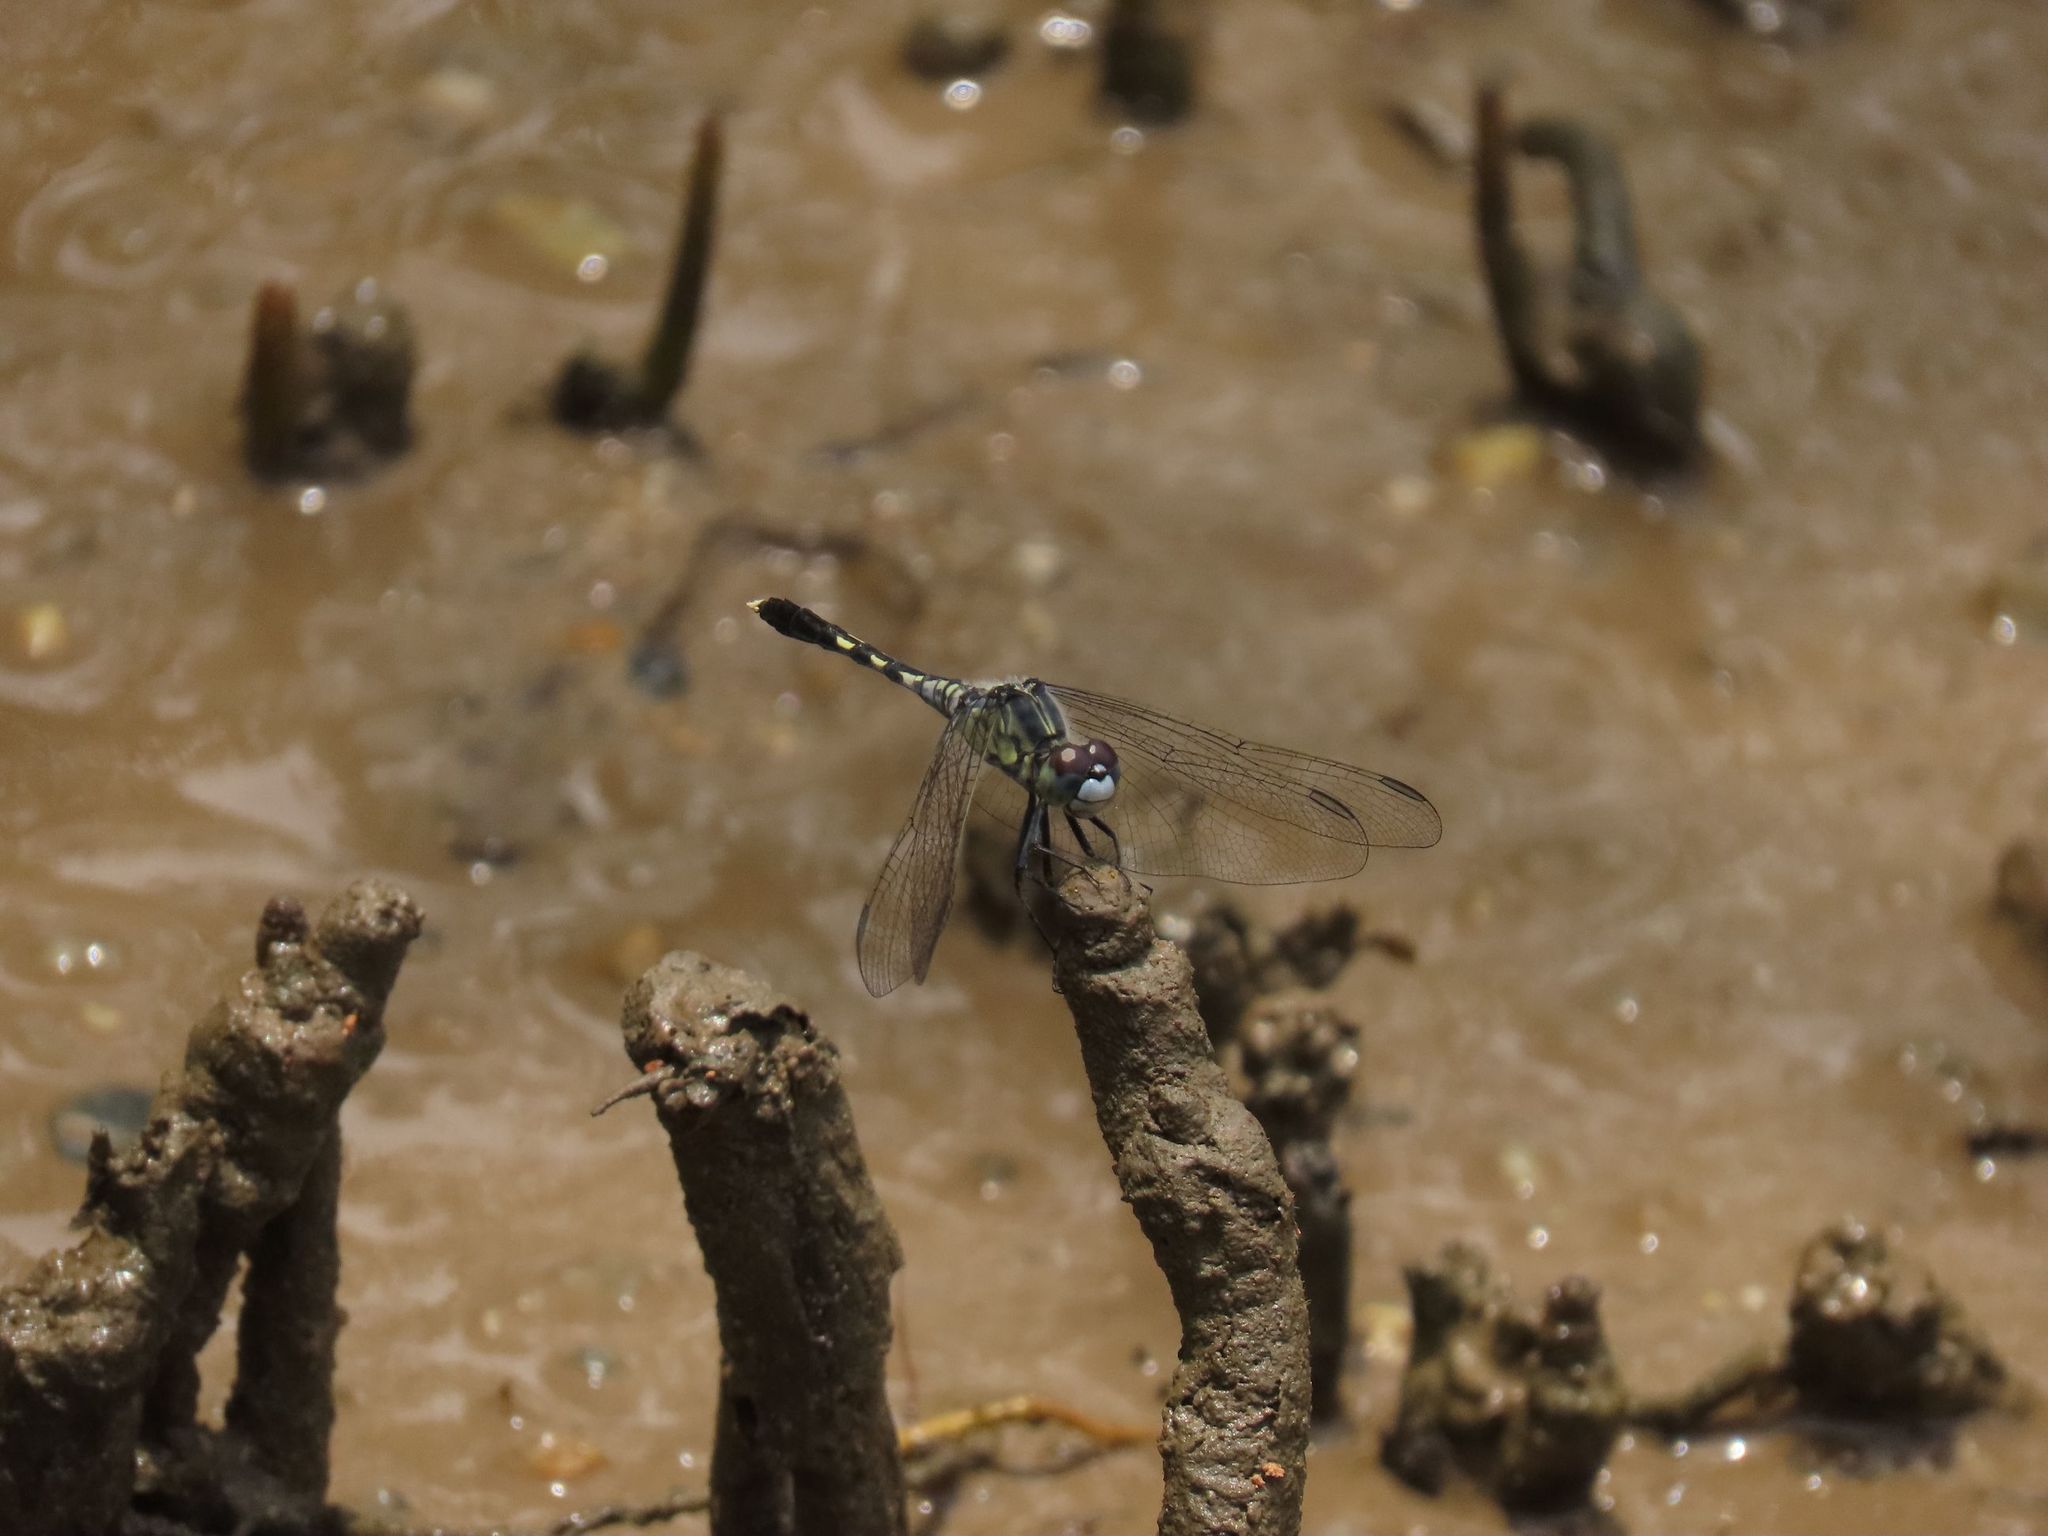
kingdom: Animalia
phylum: Arthropoda
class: Insecta
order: Odonata
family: Libellulidae
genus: Diplacodes
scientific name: Diplacodes trivialis
